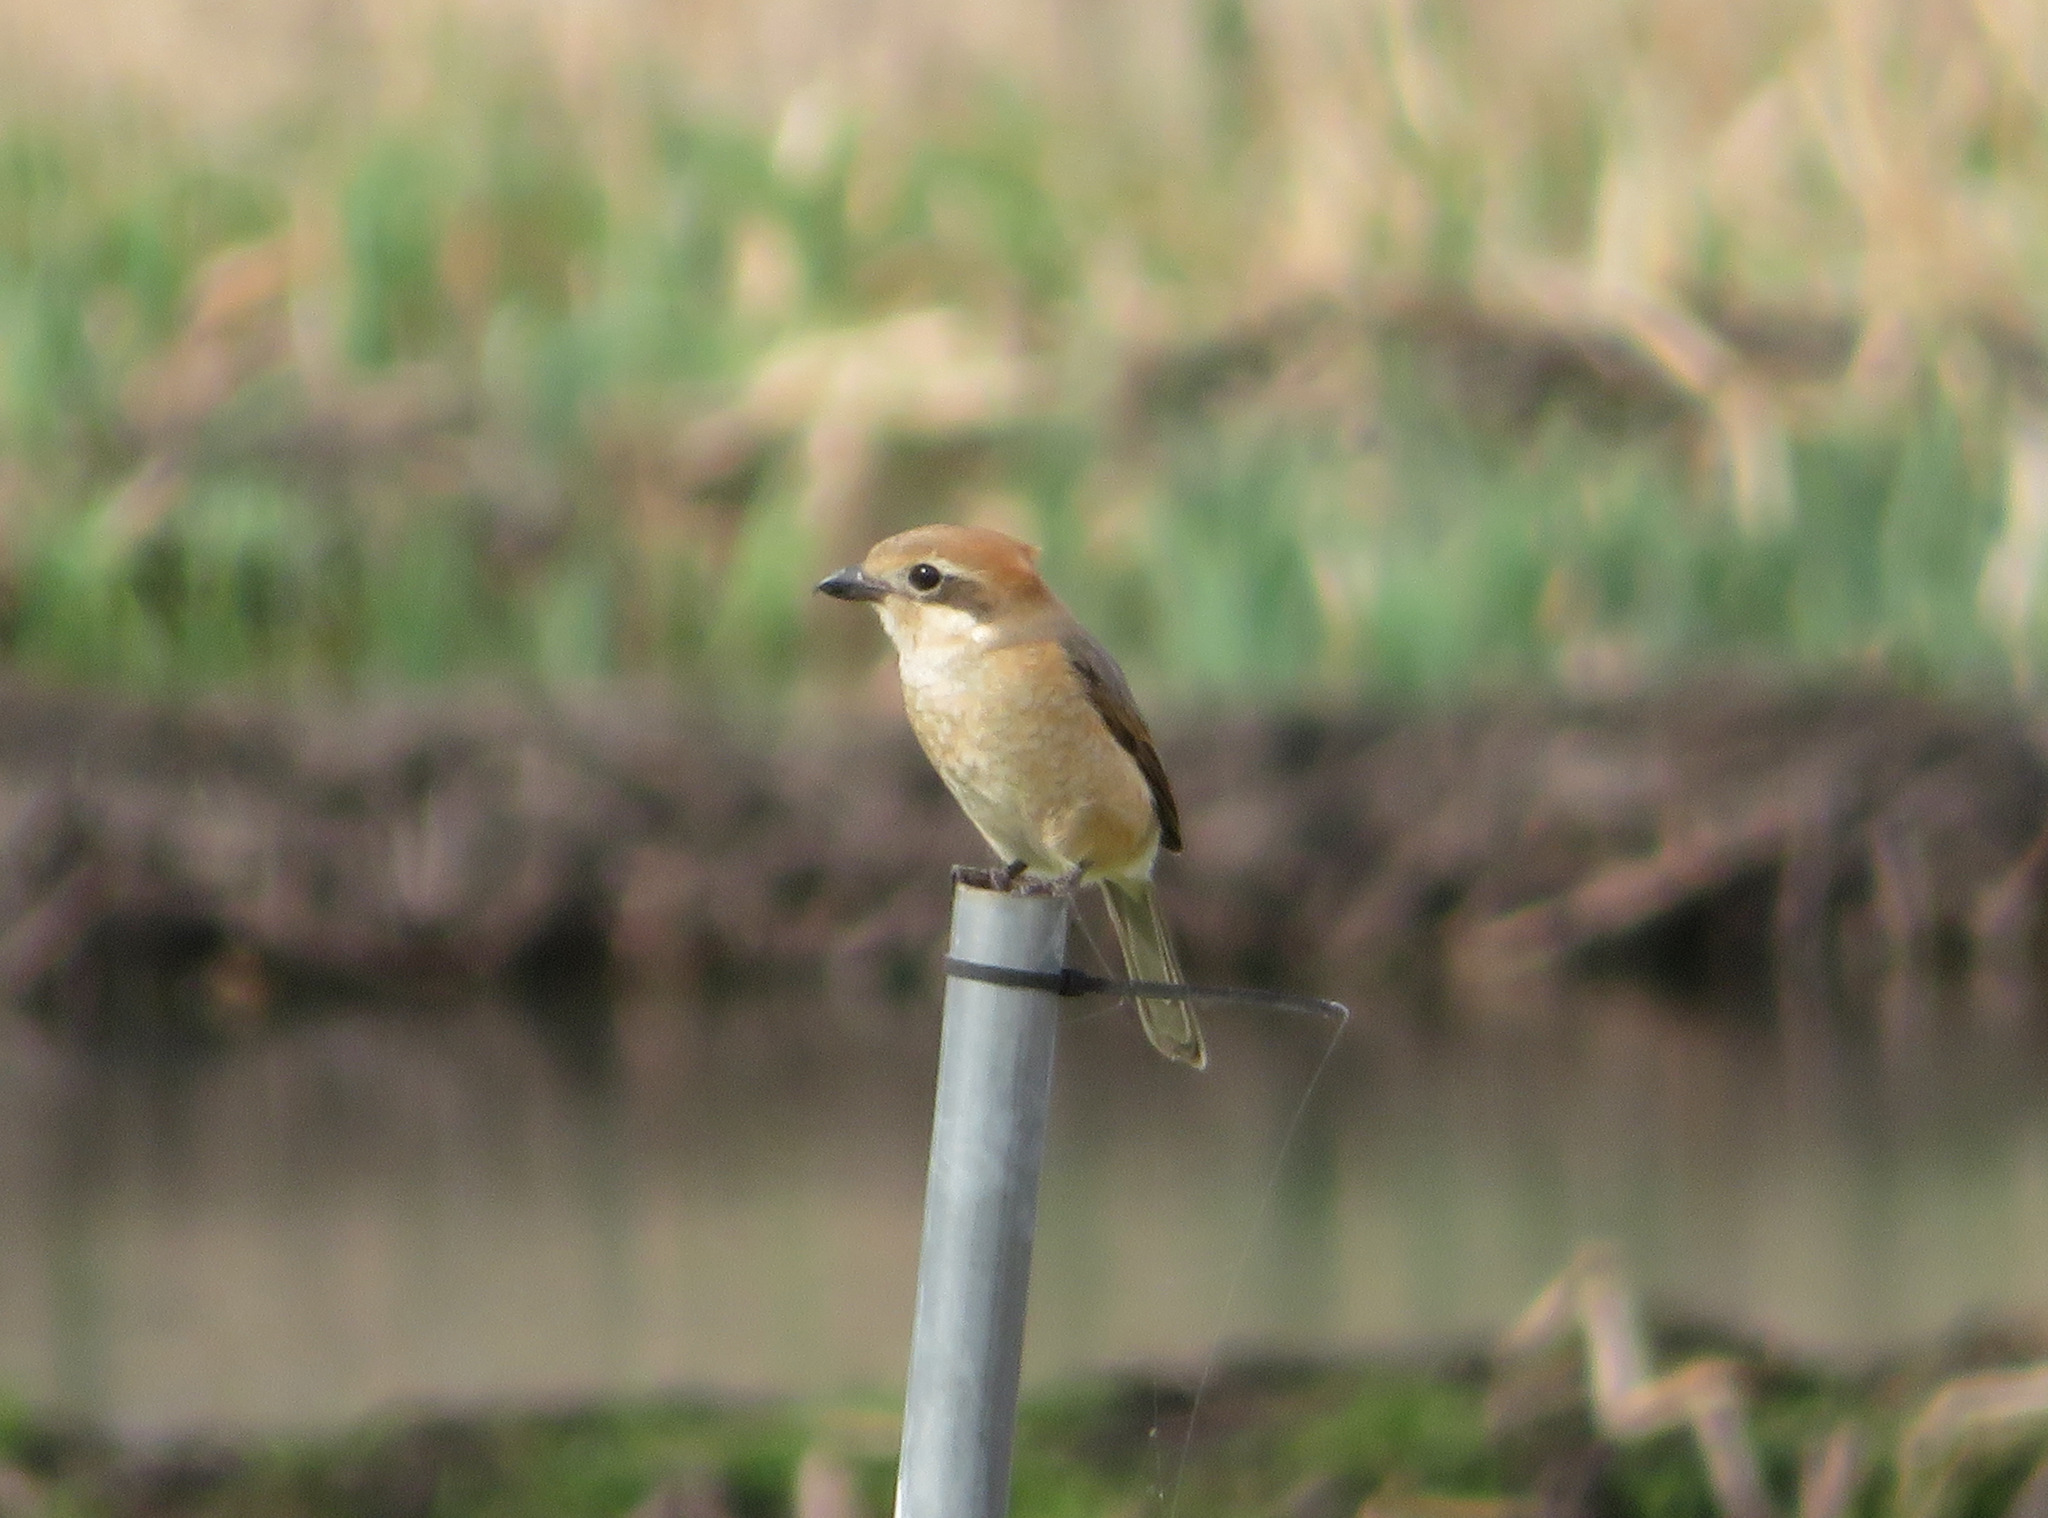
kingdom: Animalia
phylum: Chordata
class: Aves
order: Passeriformes
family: Laniidae
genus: Lanius
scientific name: Lanius bucephalus
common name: Bull-headed shrike
